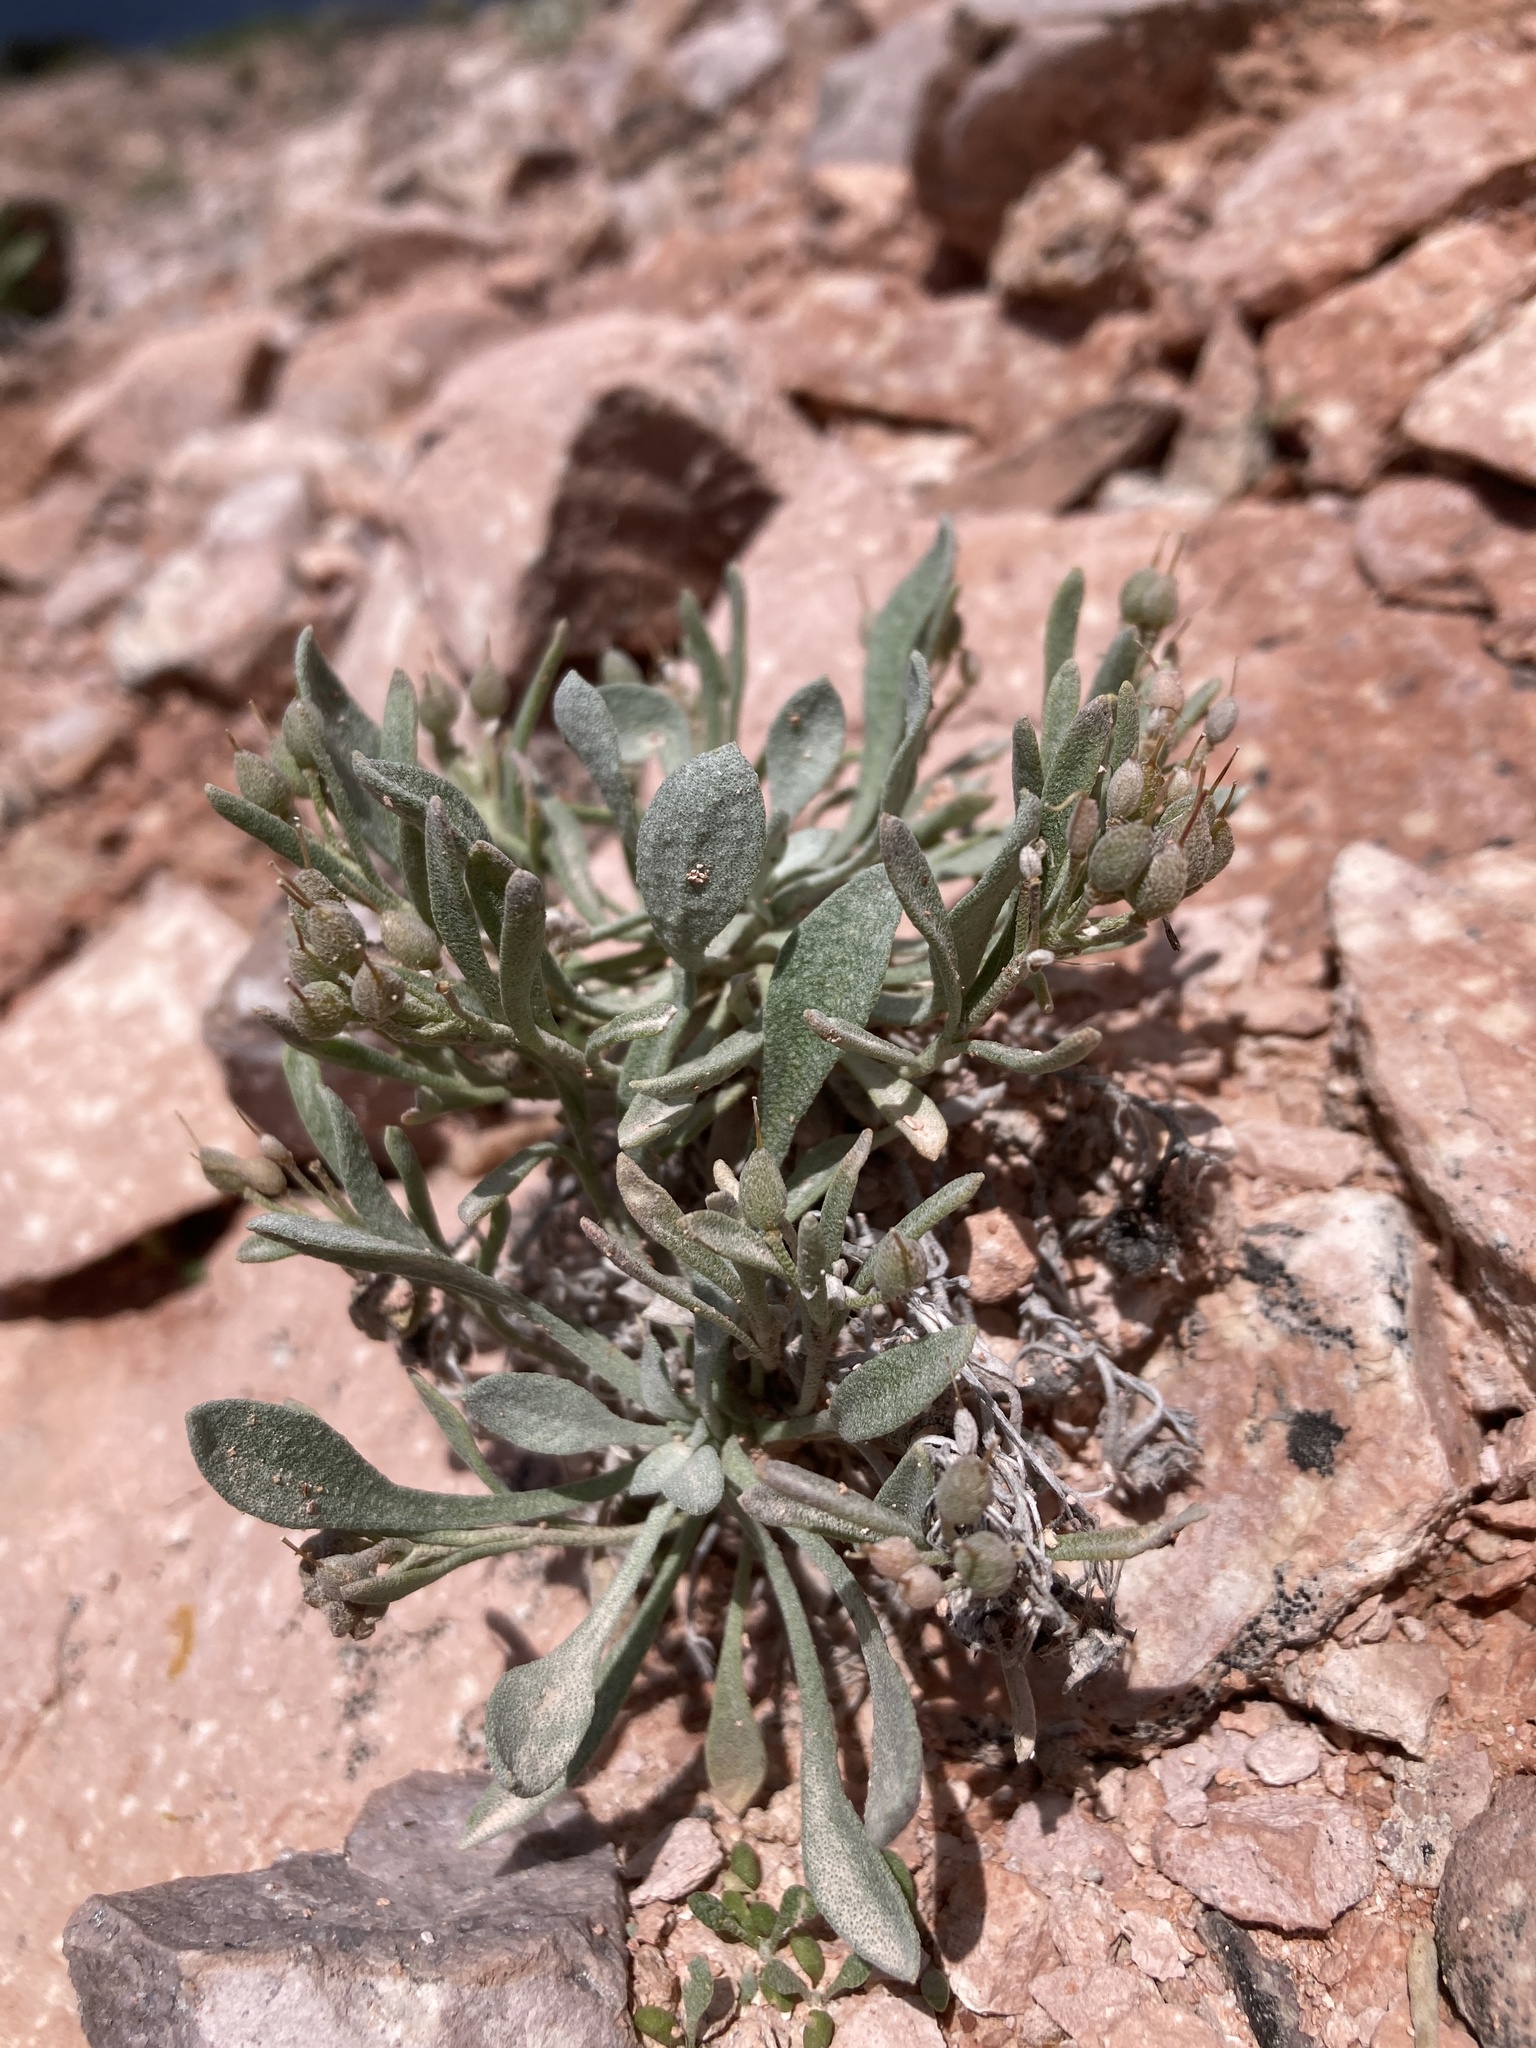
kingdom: Plantae
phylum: Tracheophyta
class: Magnoliopsida
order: Brassicales
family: Brassicaceae
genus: Physaria
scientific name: Physaria pachyphylla
